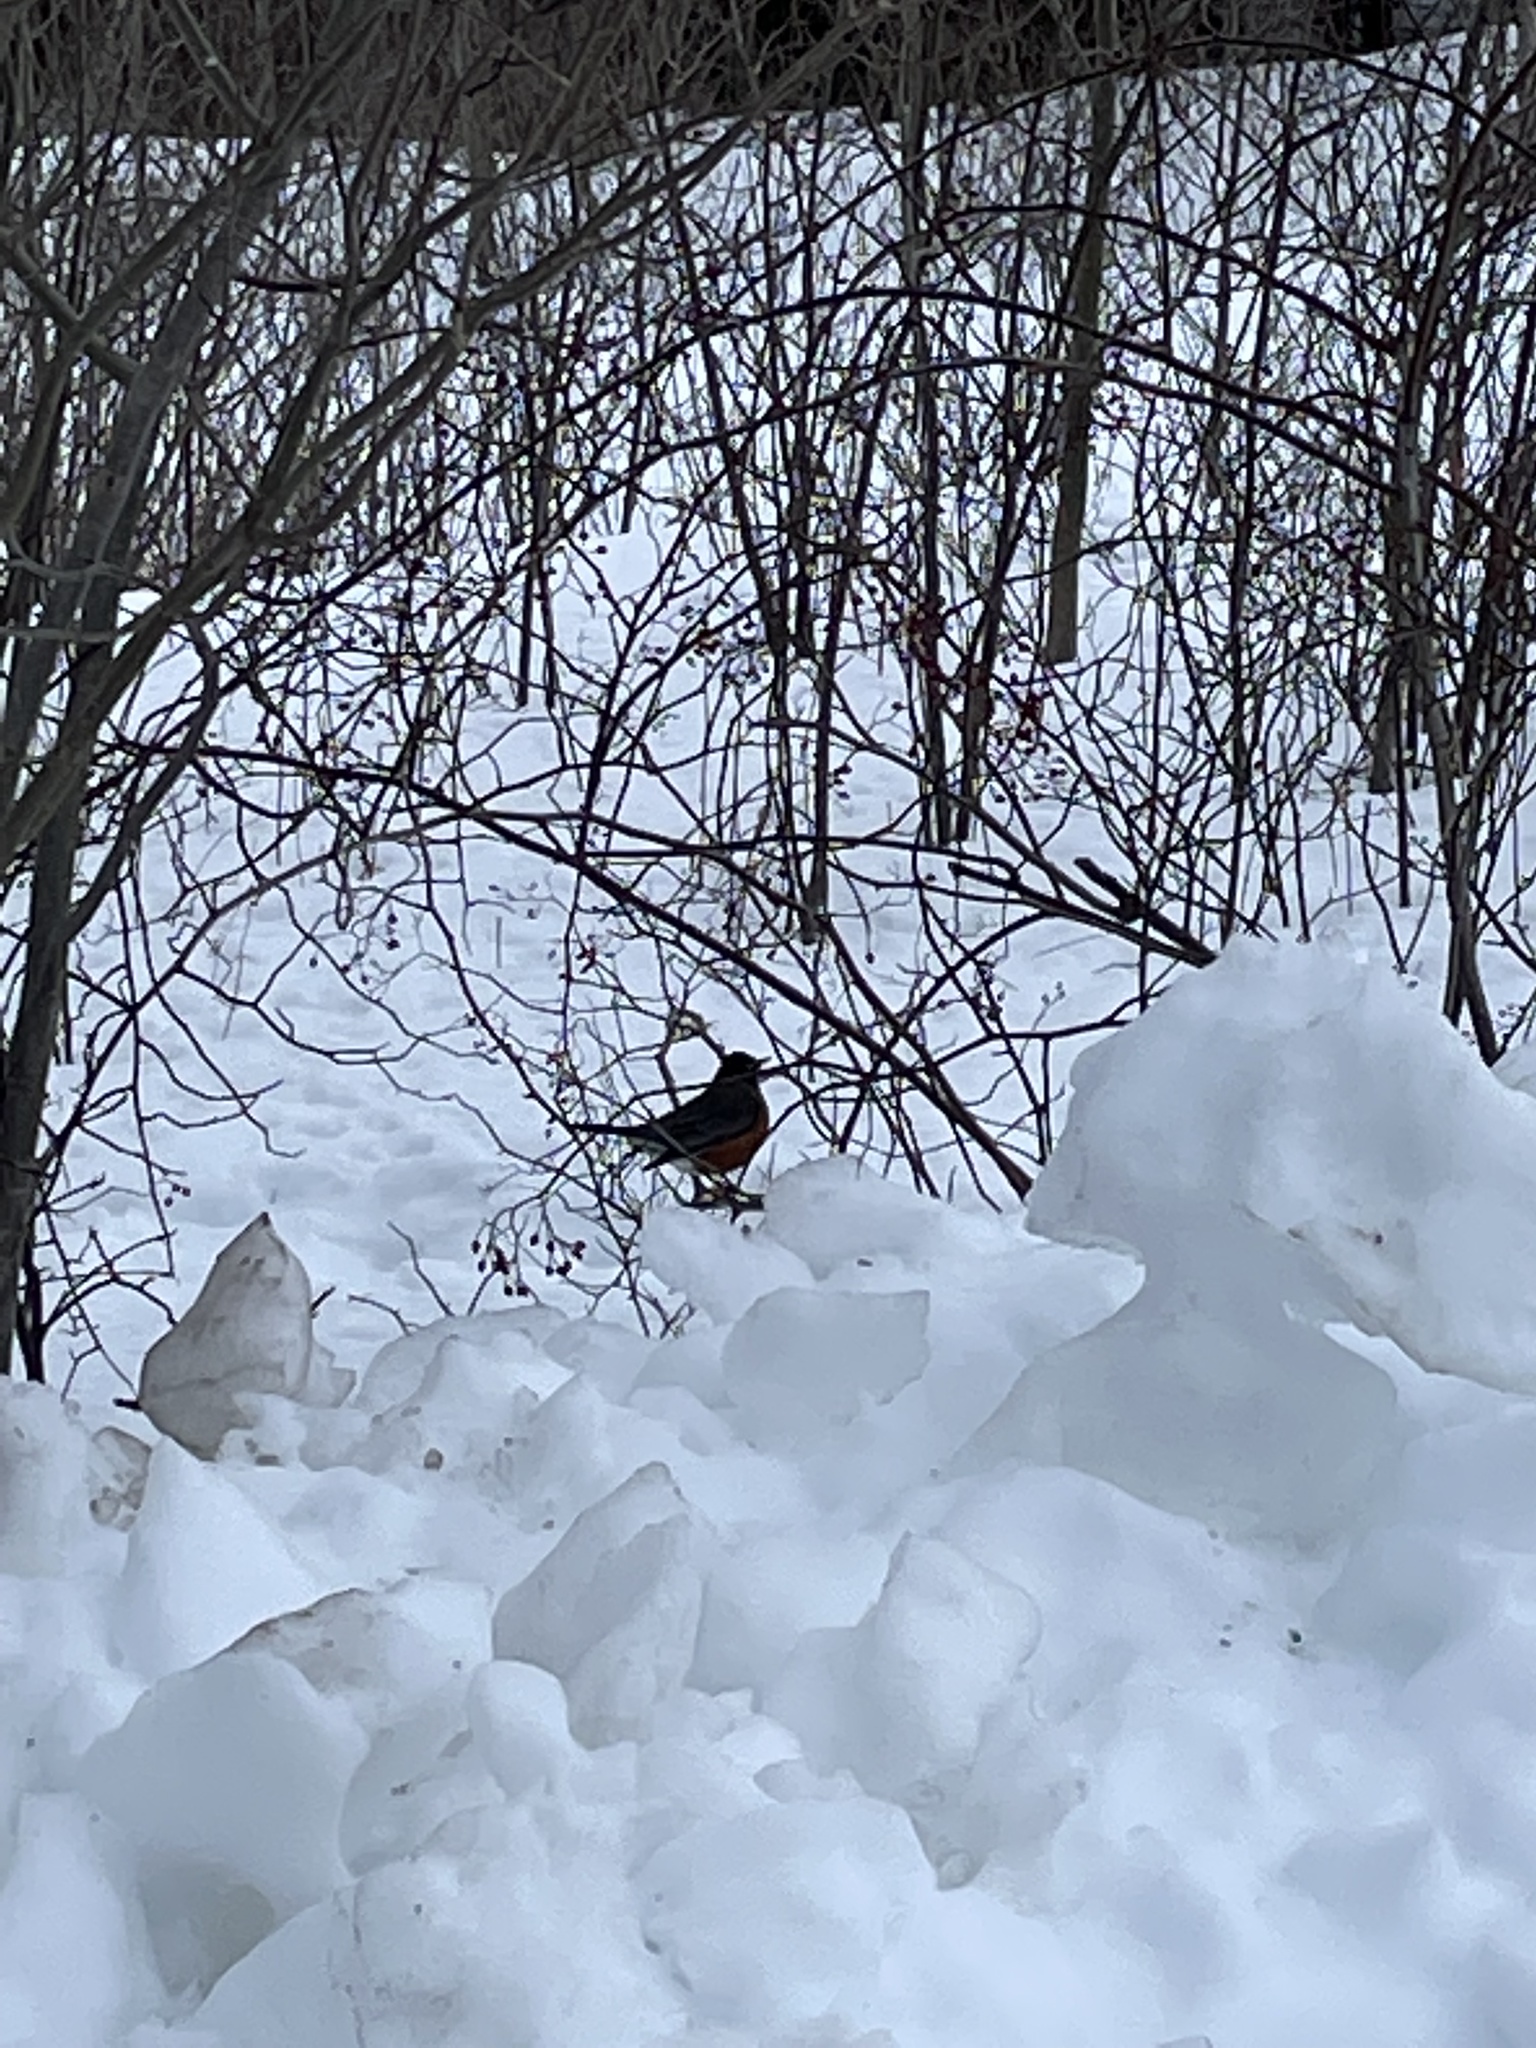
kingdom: Animalia
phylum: Chordata
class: Aves
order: Passeriformes
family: Turdidae
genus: Turdus
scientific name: Turdus migratorius
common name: American robin
